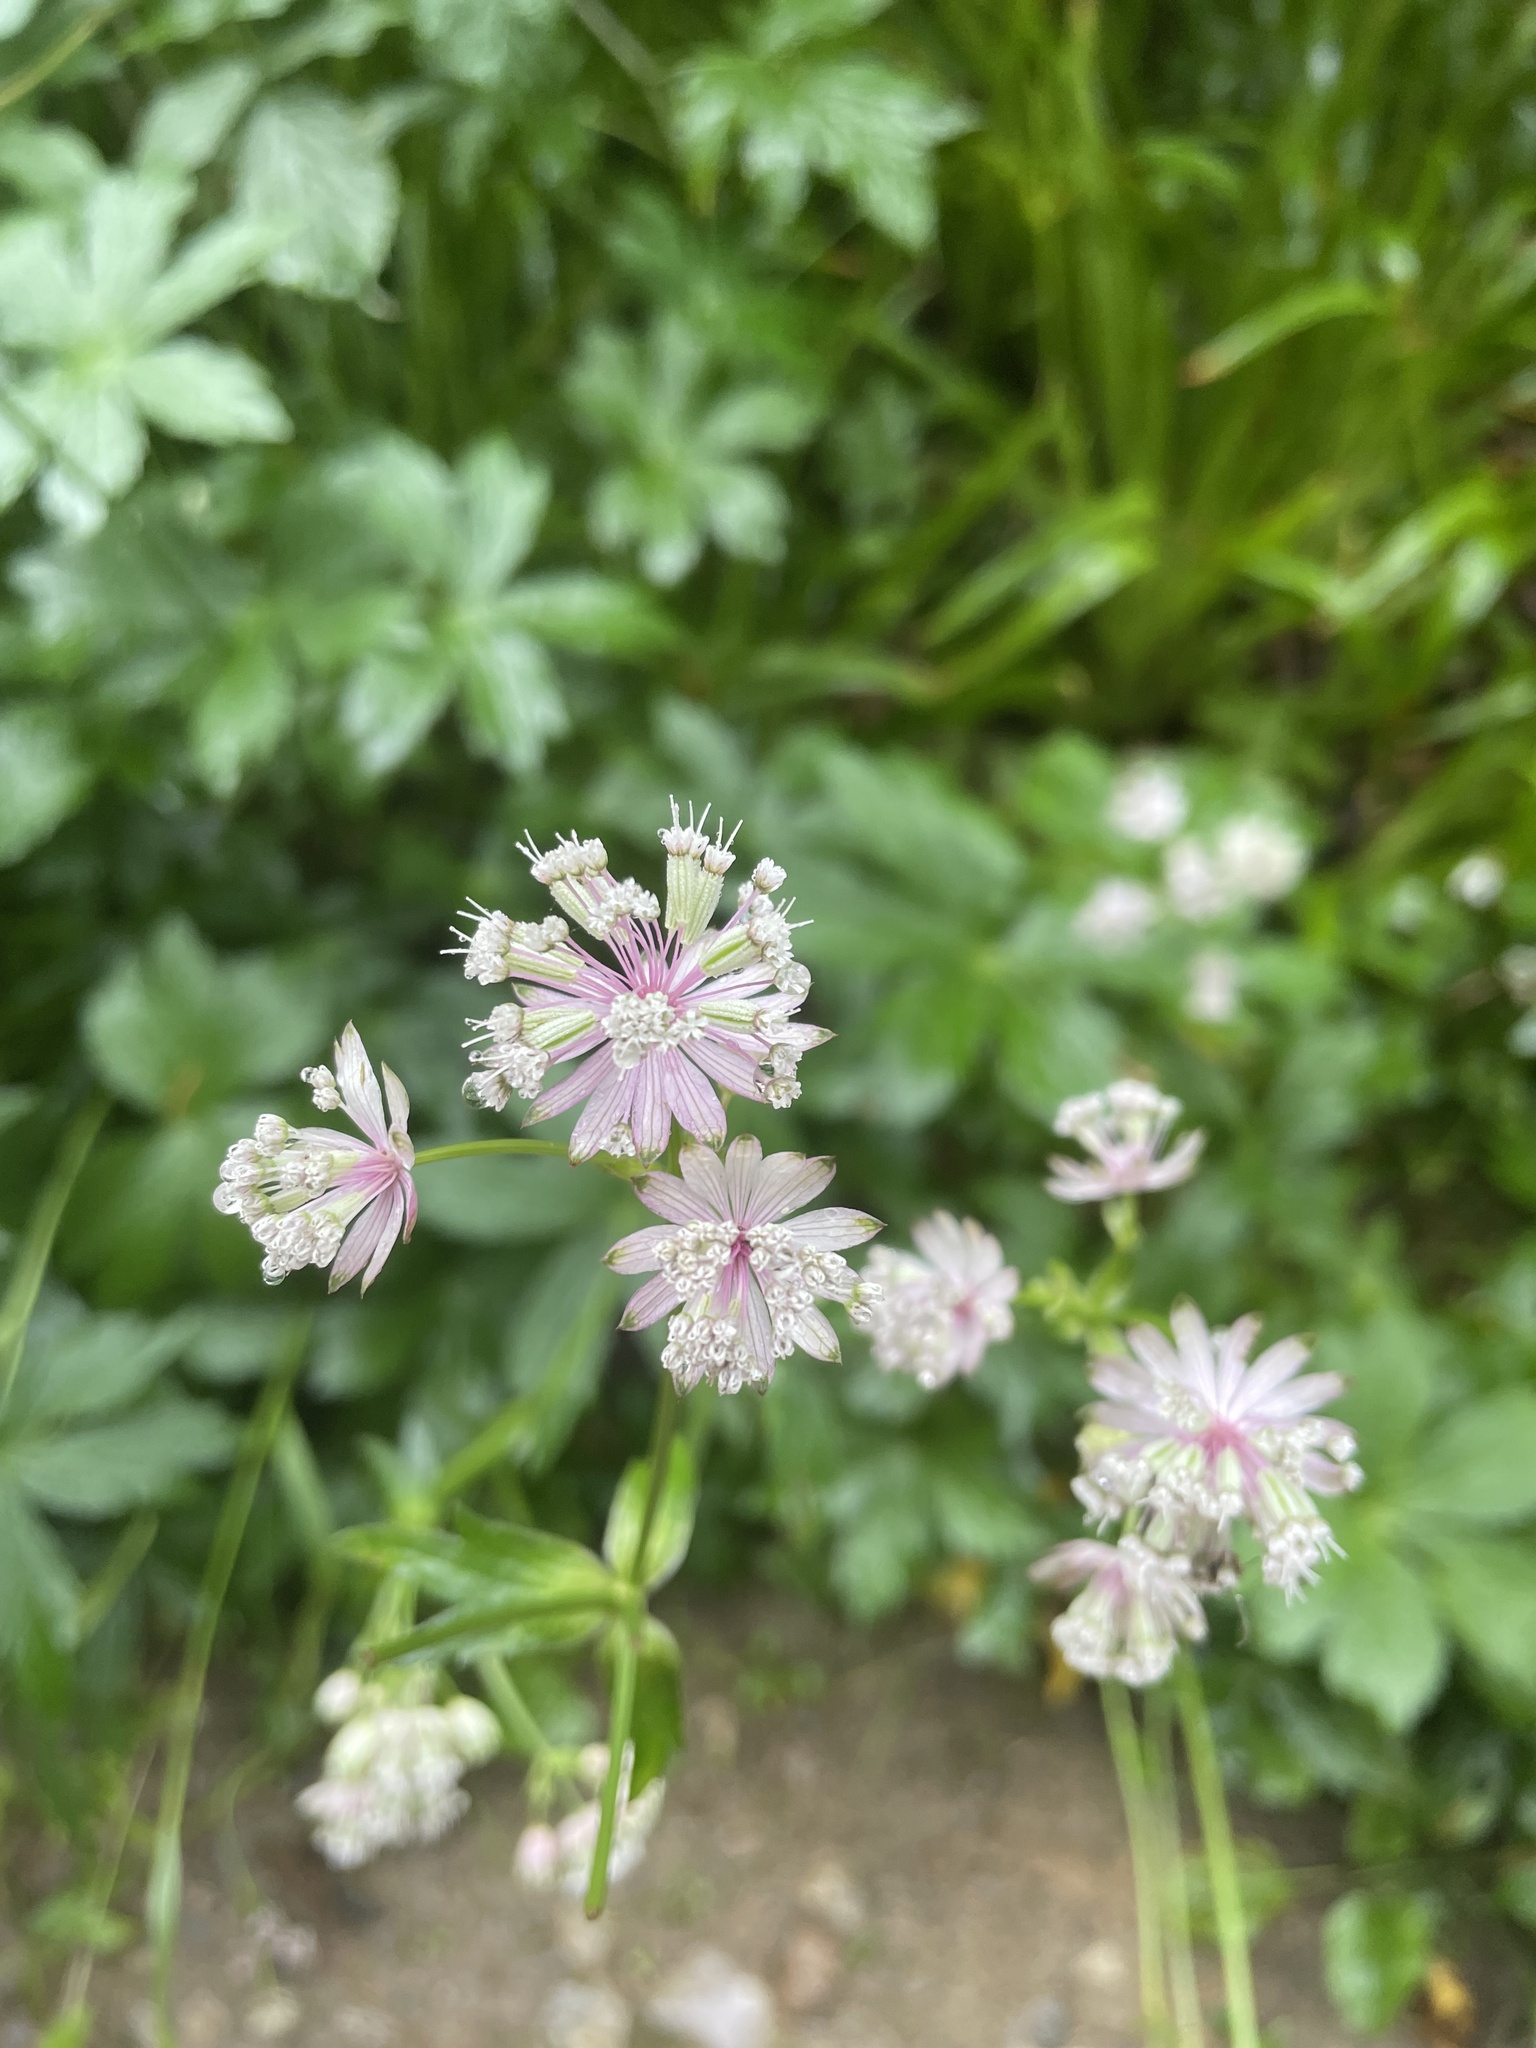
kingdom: Plantae
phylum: Tracheophyta
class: Magnoliopsida
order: Apiales
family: Apiaceae
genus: Astrantia
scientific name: Astrantia major
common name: Greater masterwort
